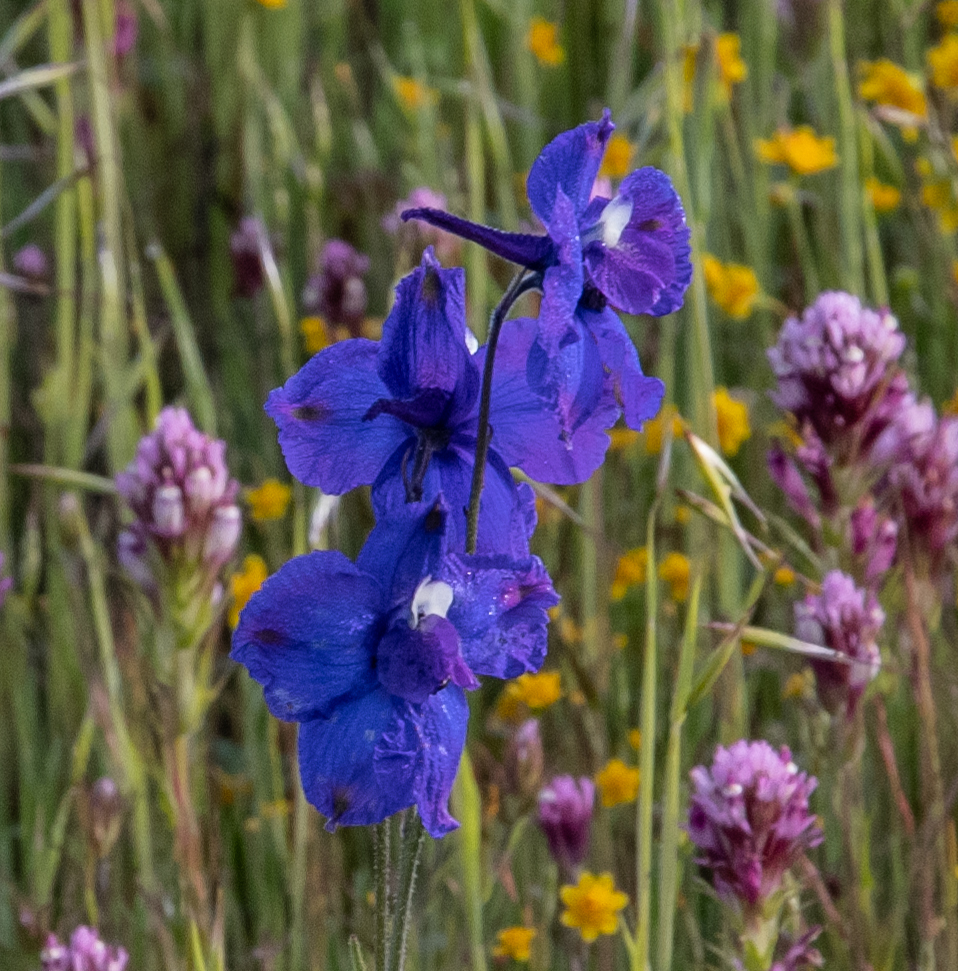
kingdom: Plantae
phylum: Tracheophyta
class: Magnoliopsida
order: Ranunculales
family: Ranunculaceae
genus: Delphinium
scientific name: Delphinium variegatum
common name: Royal larkspur
